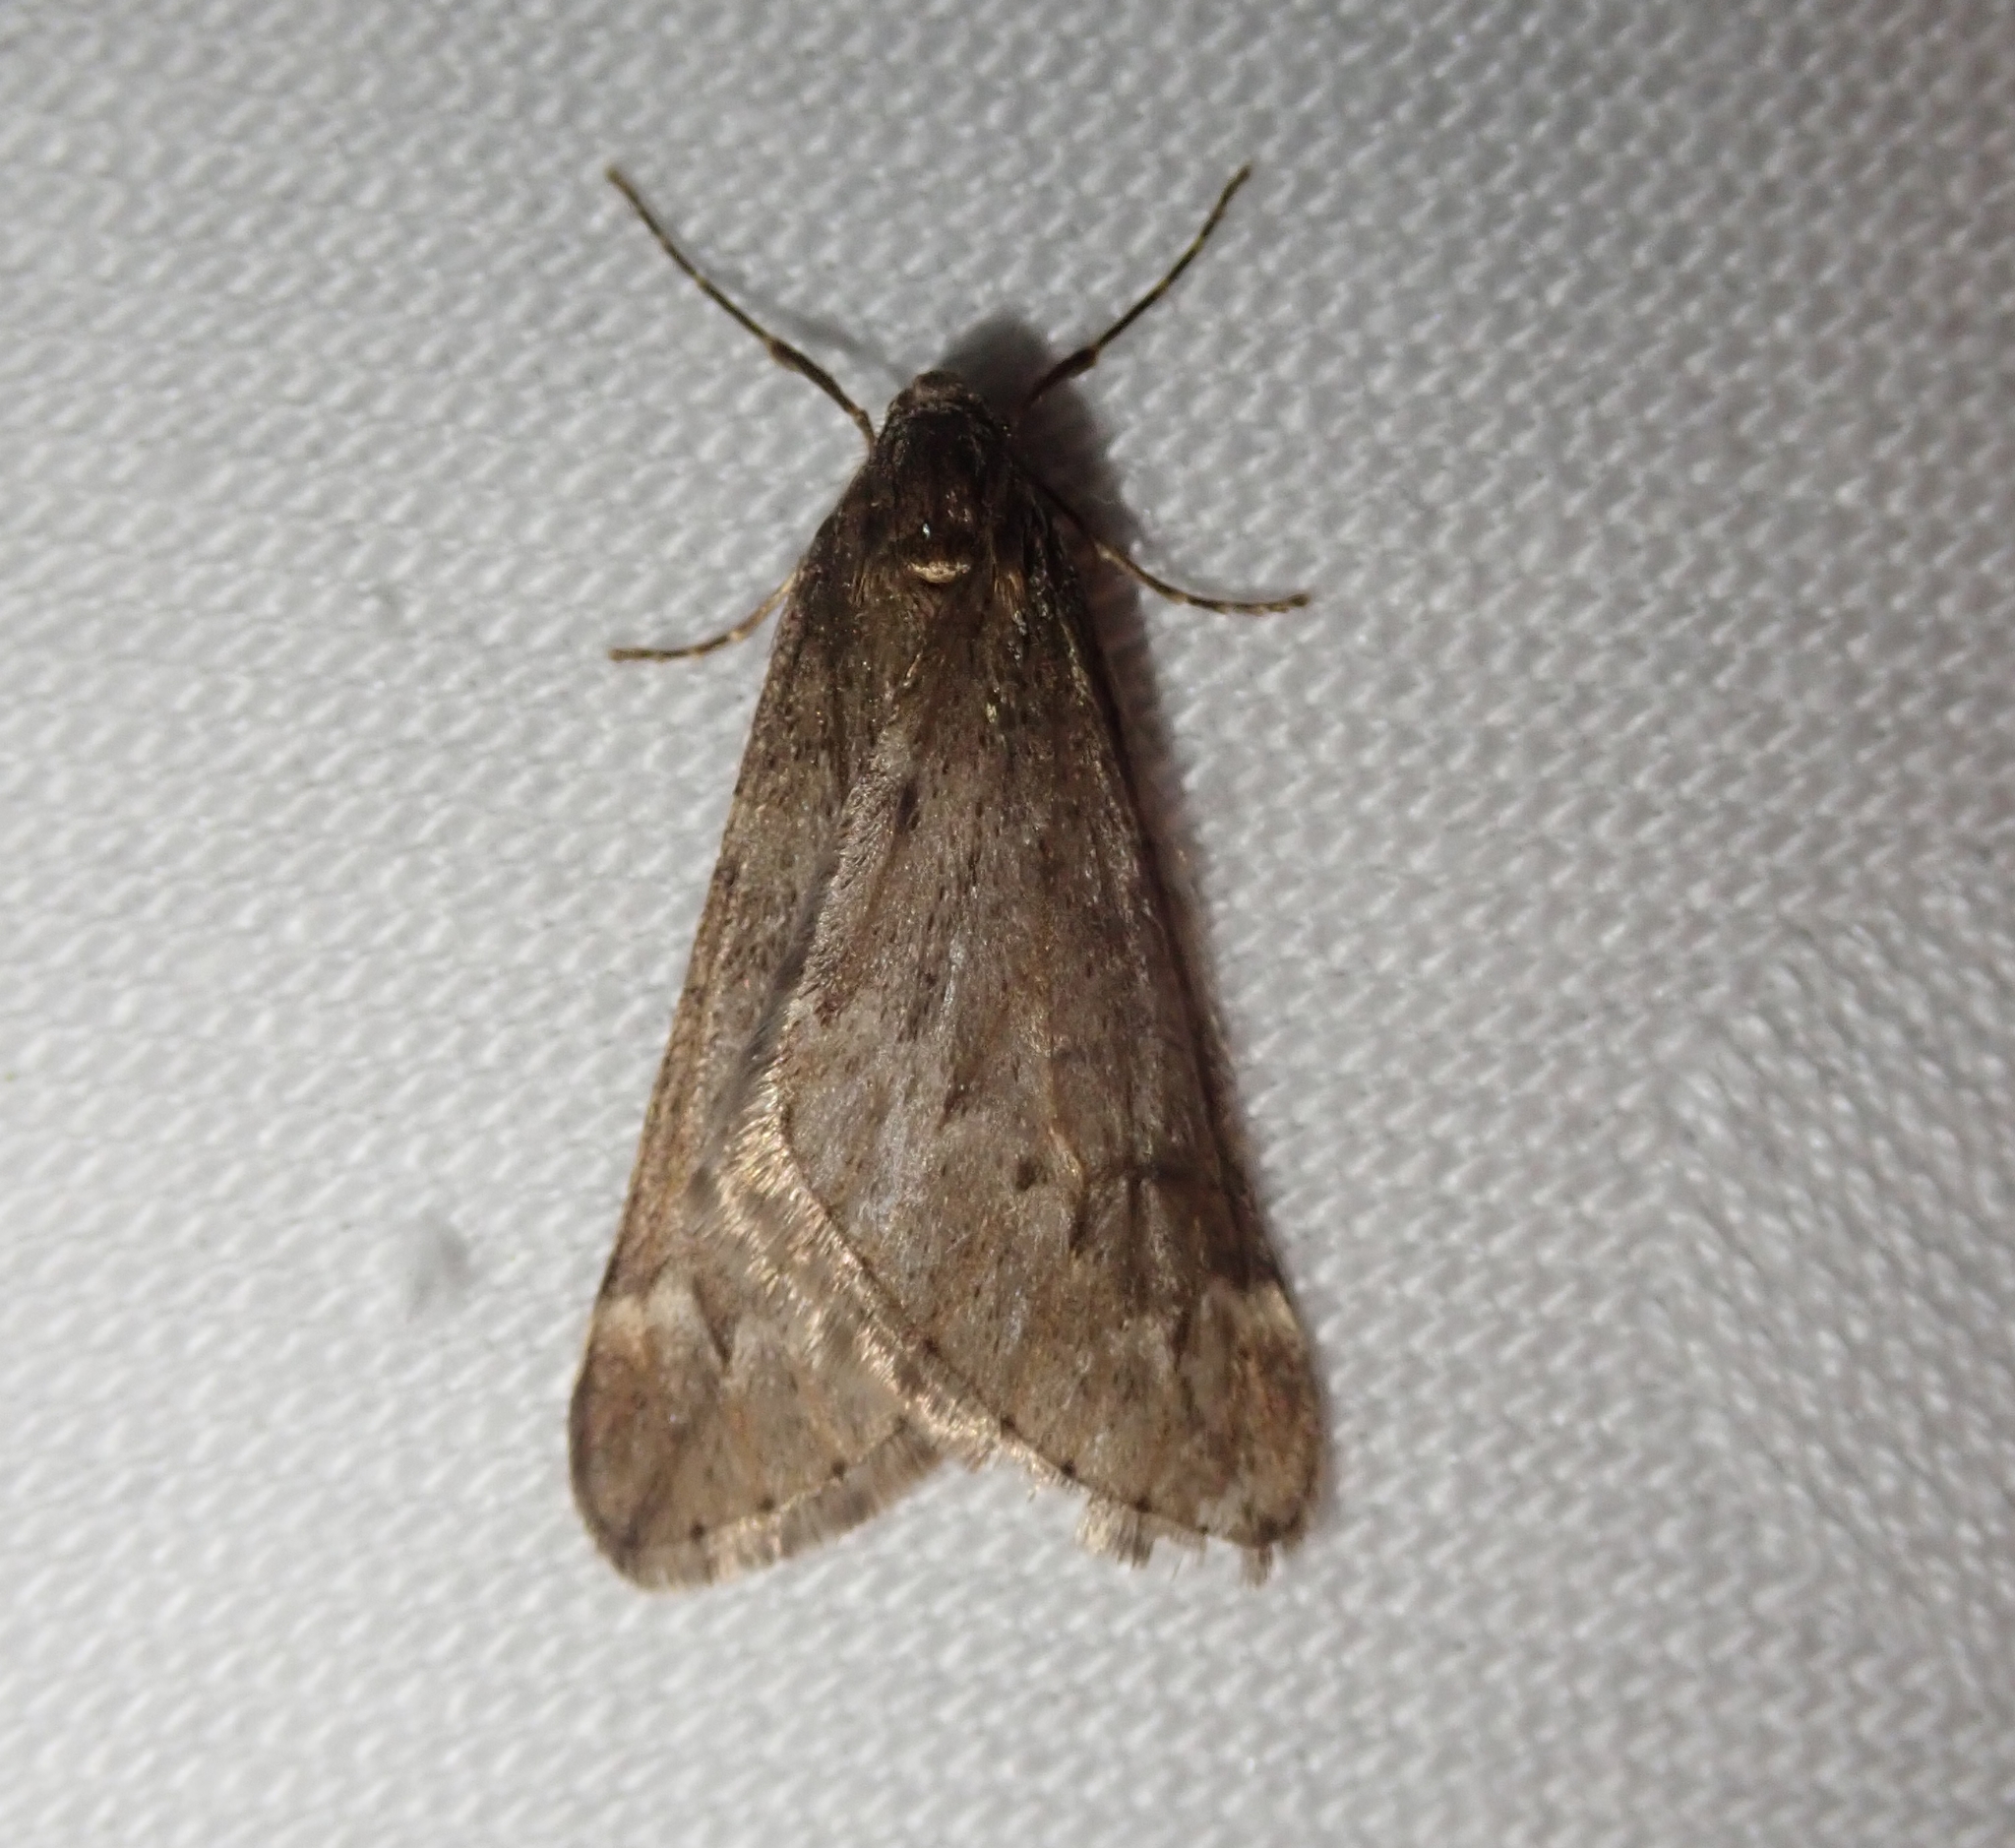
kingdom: Animalia
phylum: Arthropoda
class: Insecta
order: Lepidoptera
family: Geometridae
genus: Alsophila
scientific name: Alsophila aescularia
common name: March moth
